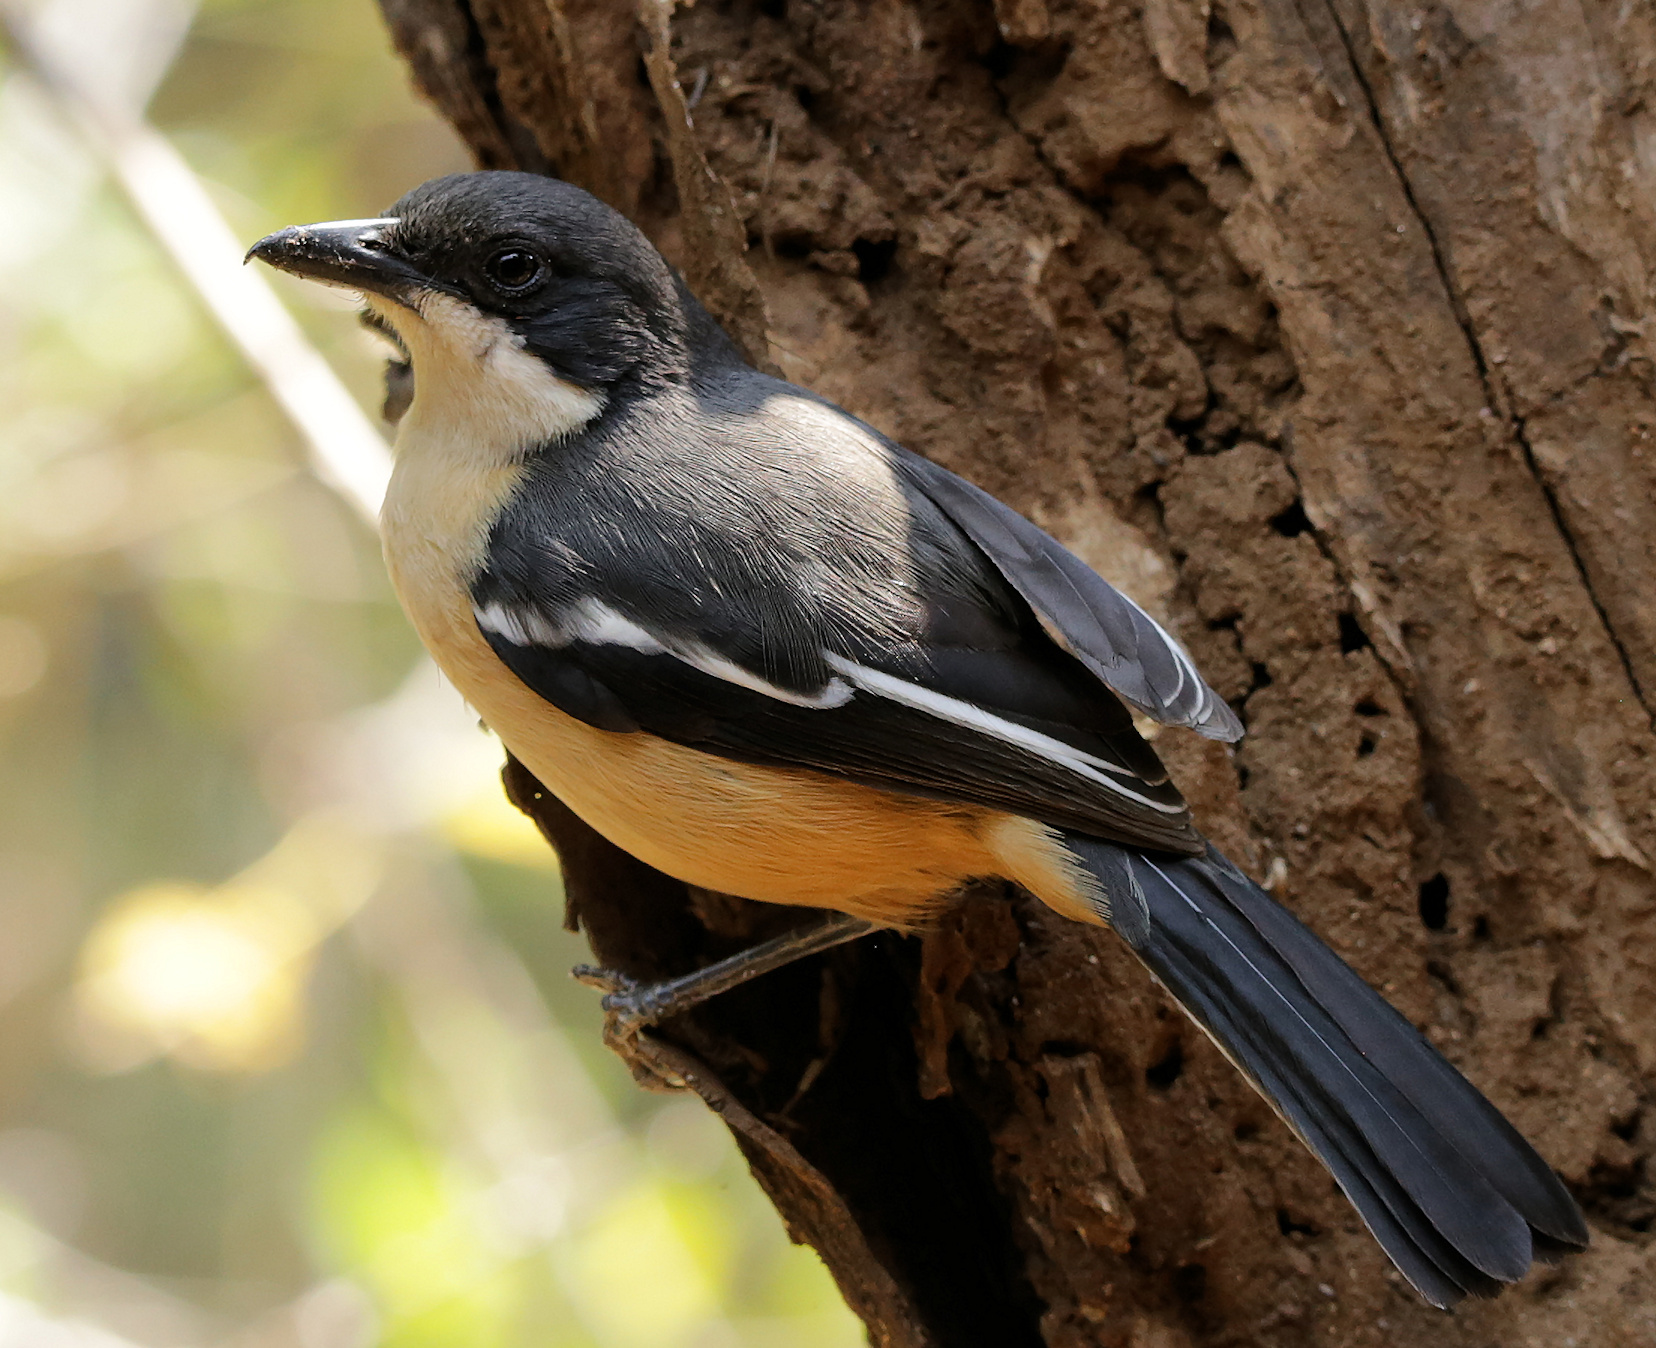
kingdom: Animalia
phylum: Chordata
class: Aves
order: Passeriformes
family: Malaconotidae
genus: Laniarius
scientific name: Laniarius ferrugineus
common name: Southern boubou
